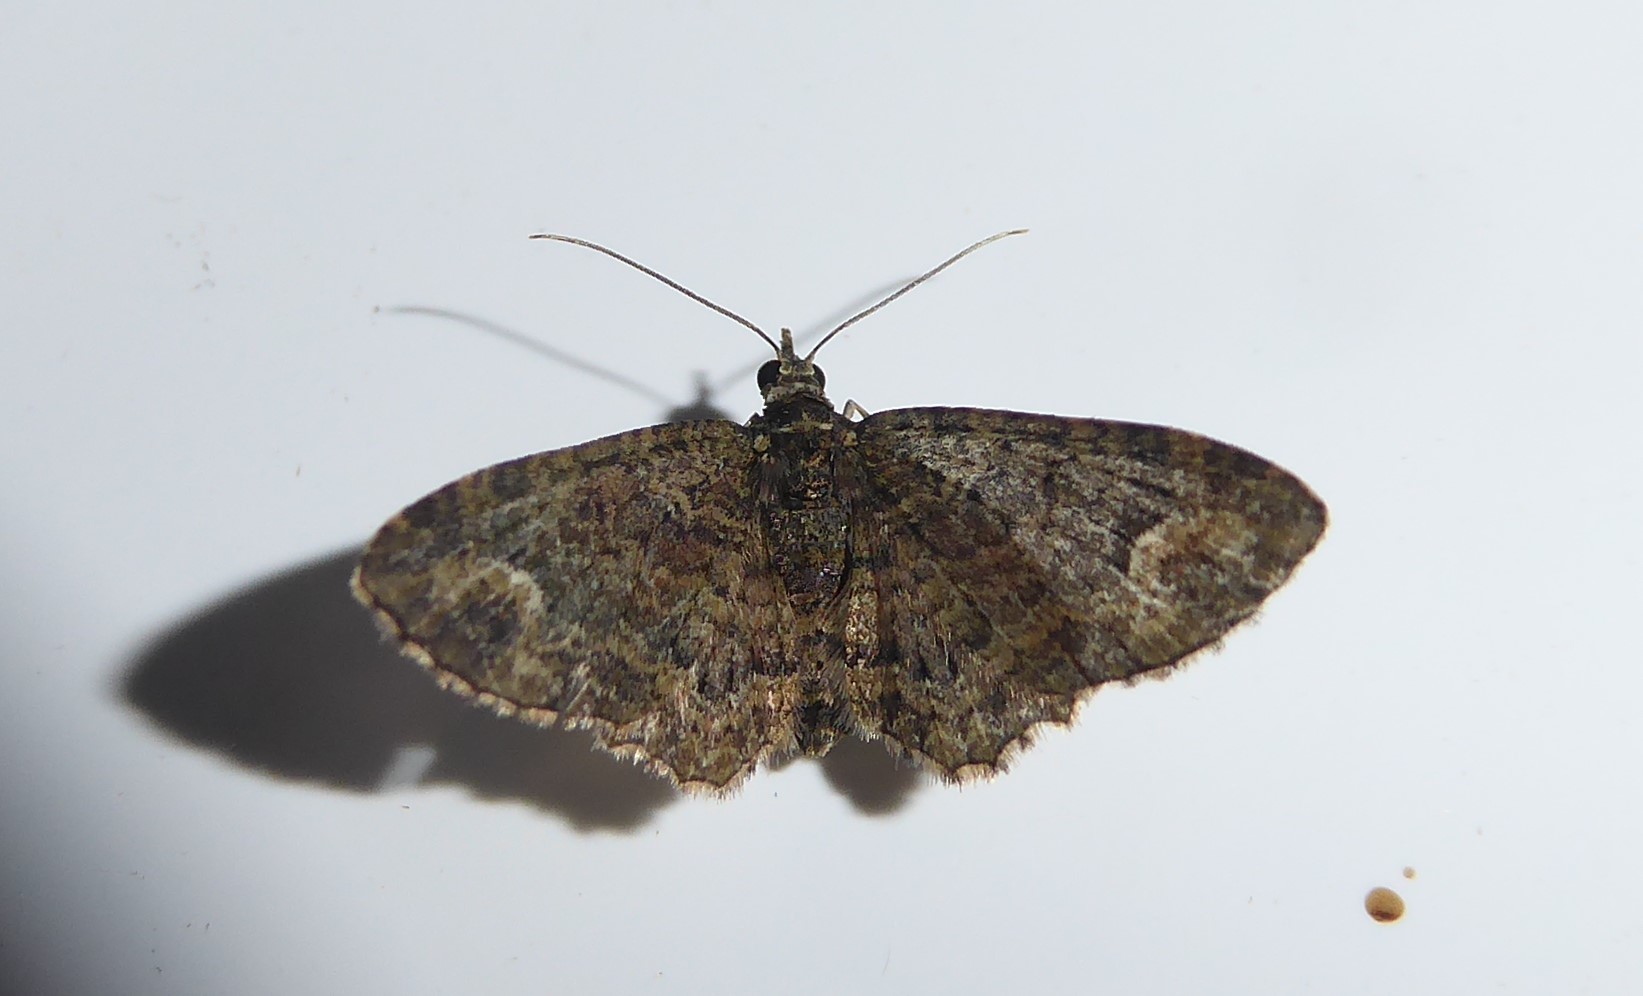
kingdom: Animalia
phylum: Arthropoda
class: Insecta
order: Lepidoptera
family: Geometridae
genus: Pasiphilodes
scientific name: Pasiphilodes testulata
